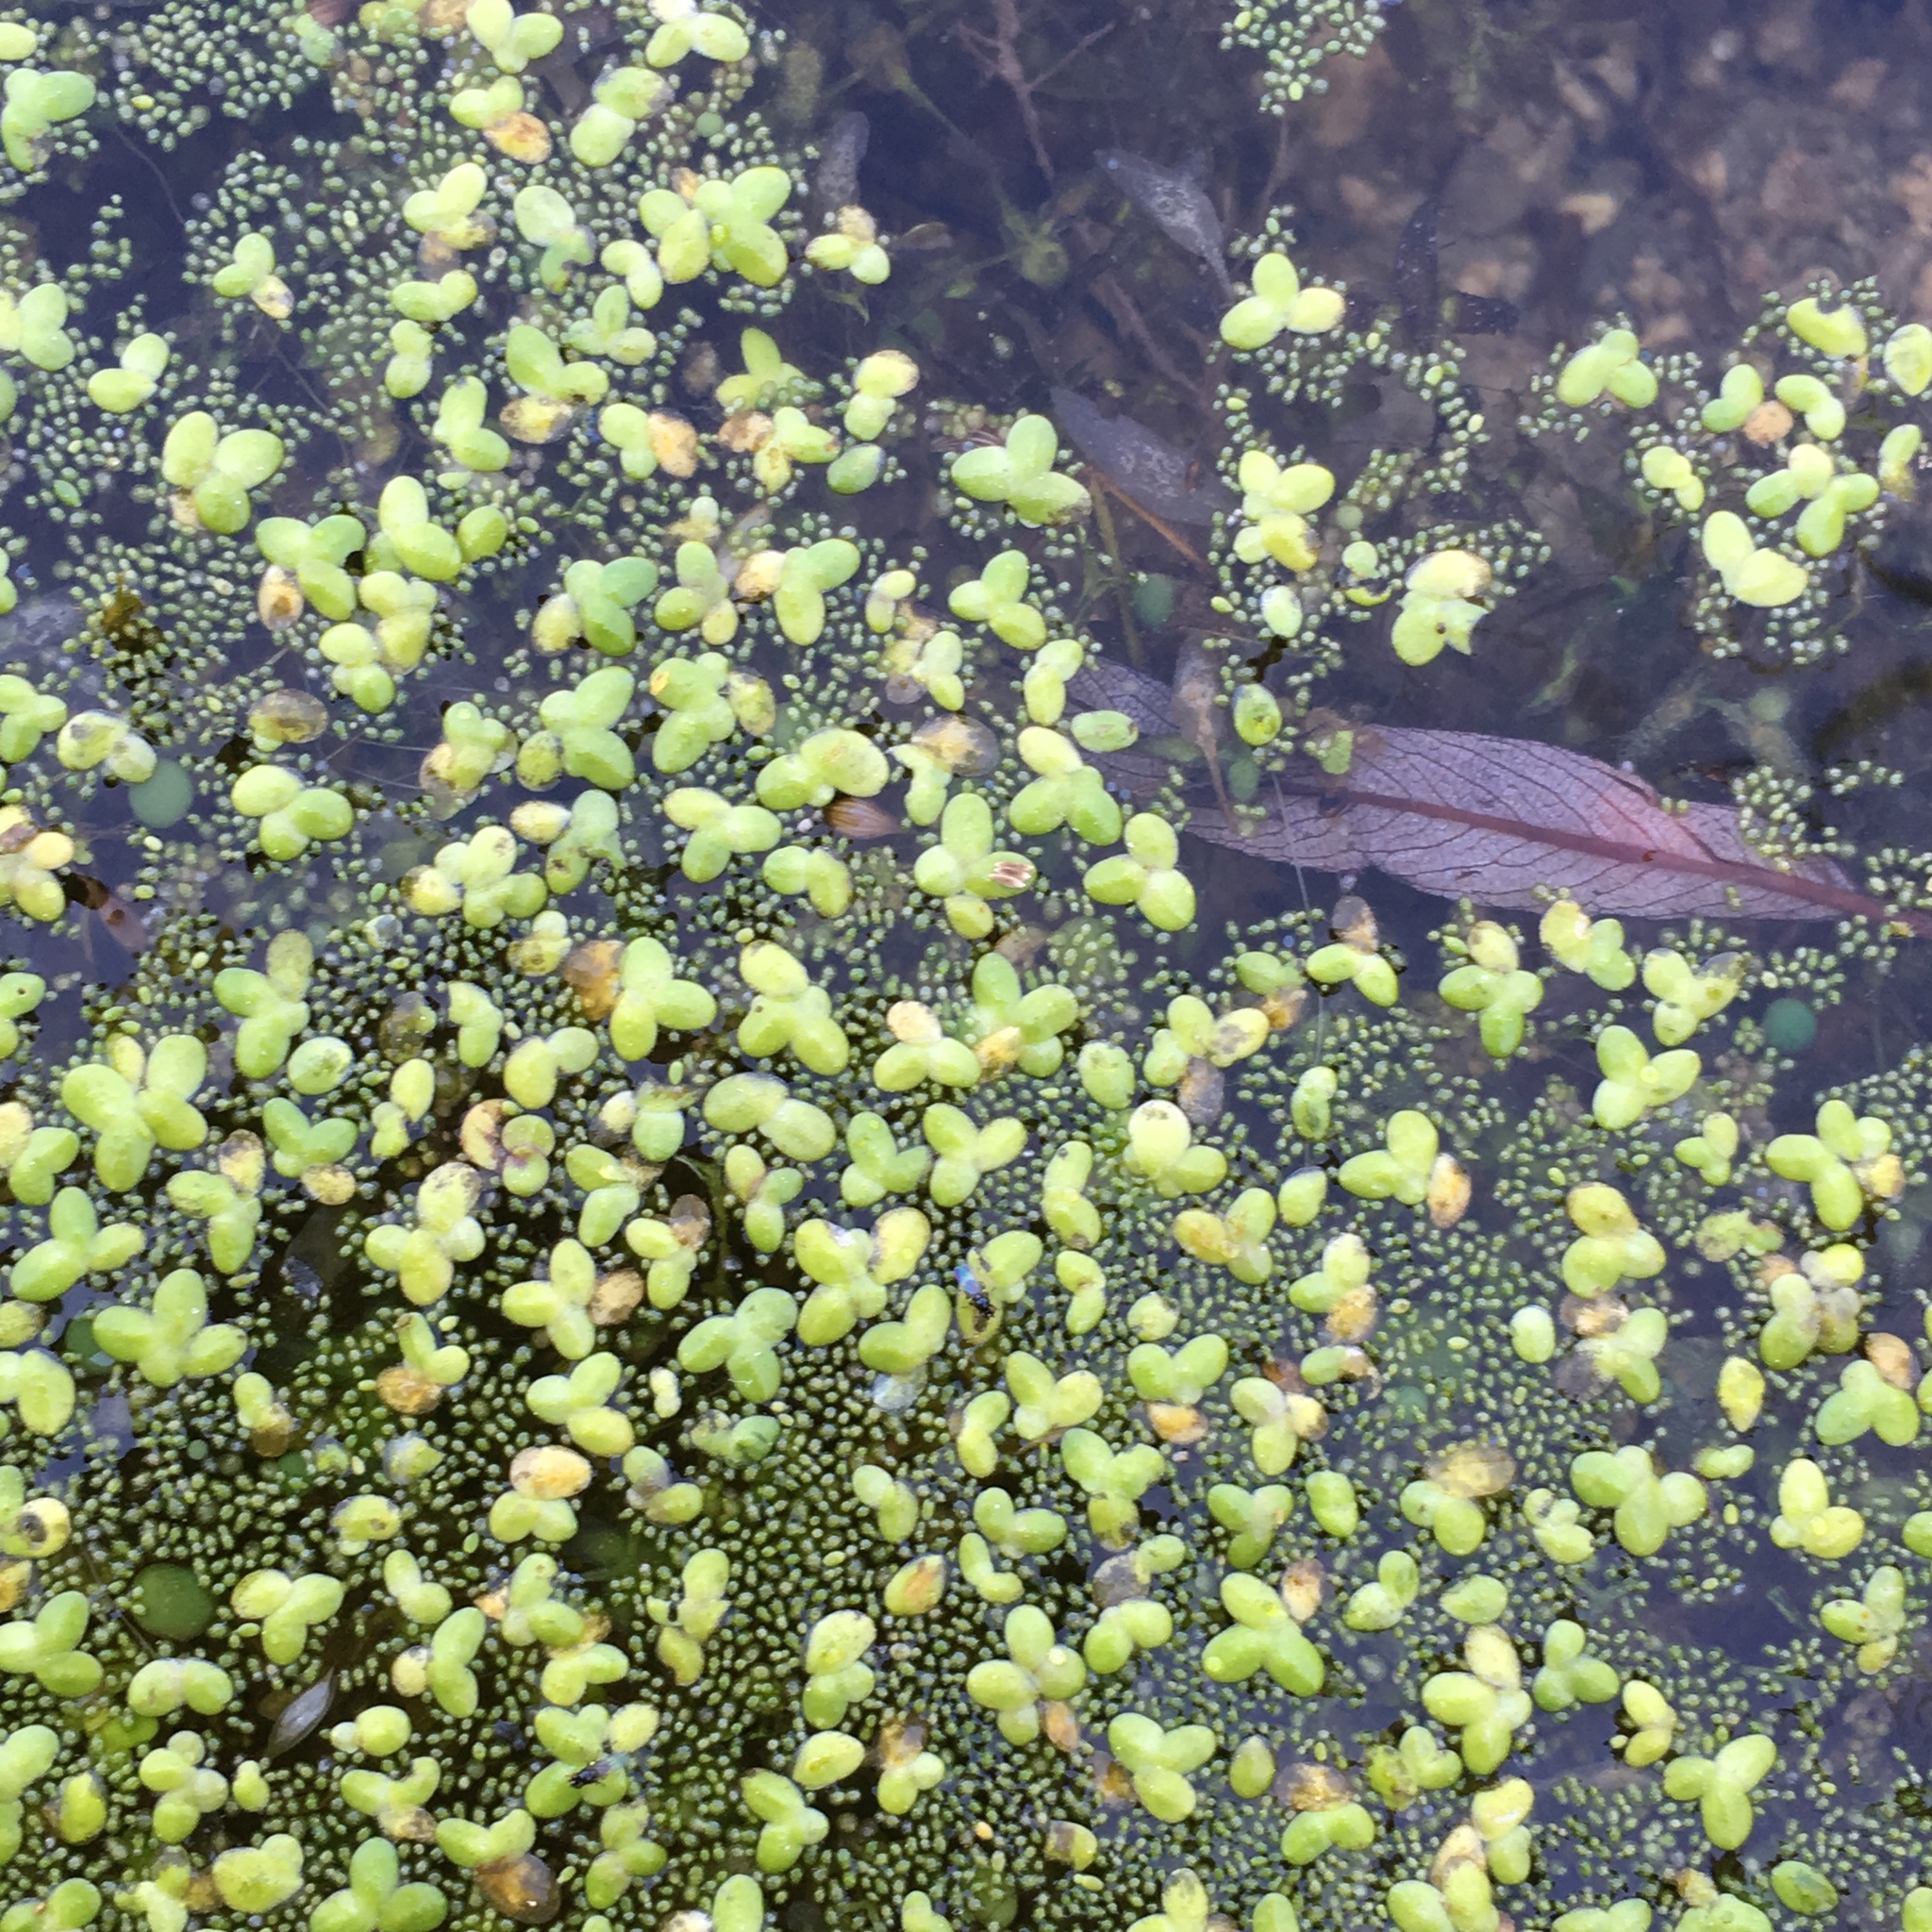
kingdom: Plantae
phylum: Tracheophyta
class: Liliopsida
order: Alismatales
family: Araceae
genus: Lemna
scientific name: Lemna minor
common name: Common duckweed
